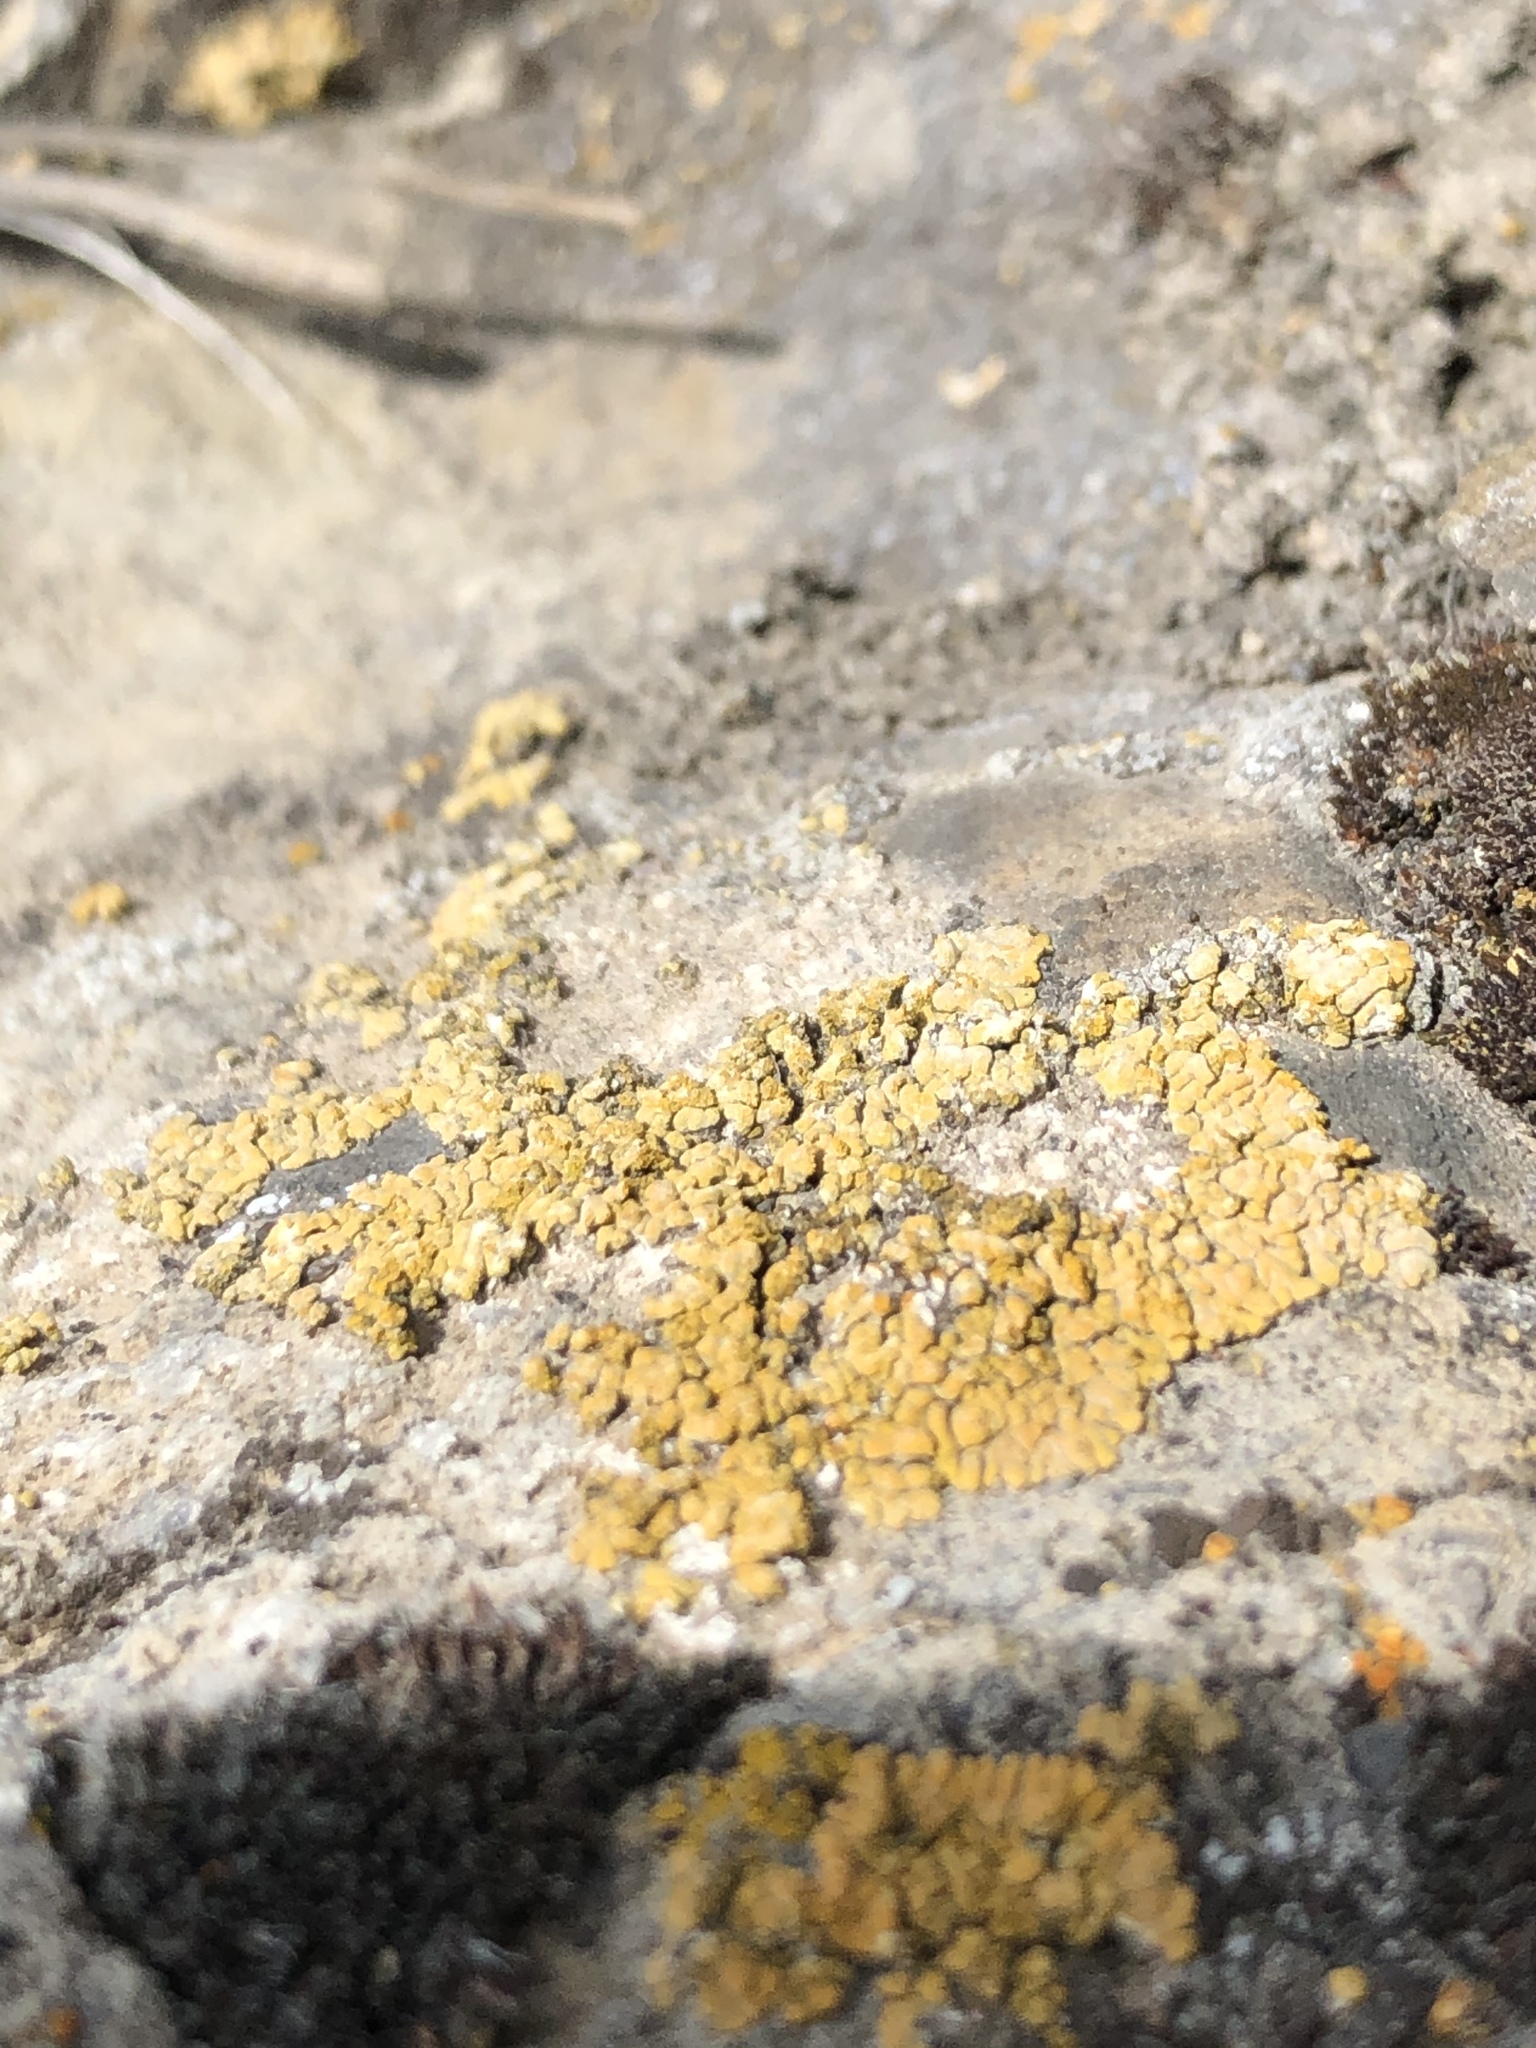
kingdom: Fungi
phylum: Ascomycota
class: Candelariomycetes
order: Candelariales
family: Candelariaceae
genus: Candelaria
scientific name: Candelaria concolor
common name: Candleflame lichen
